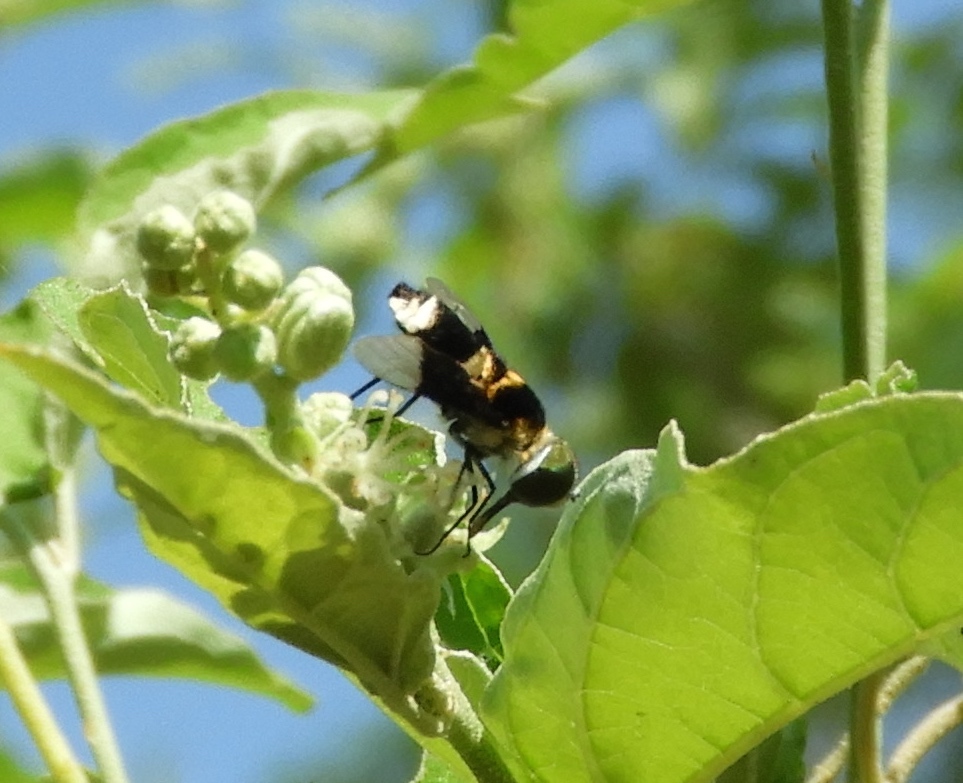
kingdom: Animalia
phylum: Arthropoda
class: Insecta
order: Diptera
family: Bombyliidae
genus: Ins
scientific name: Ins celeris
